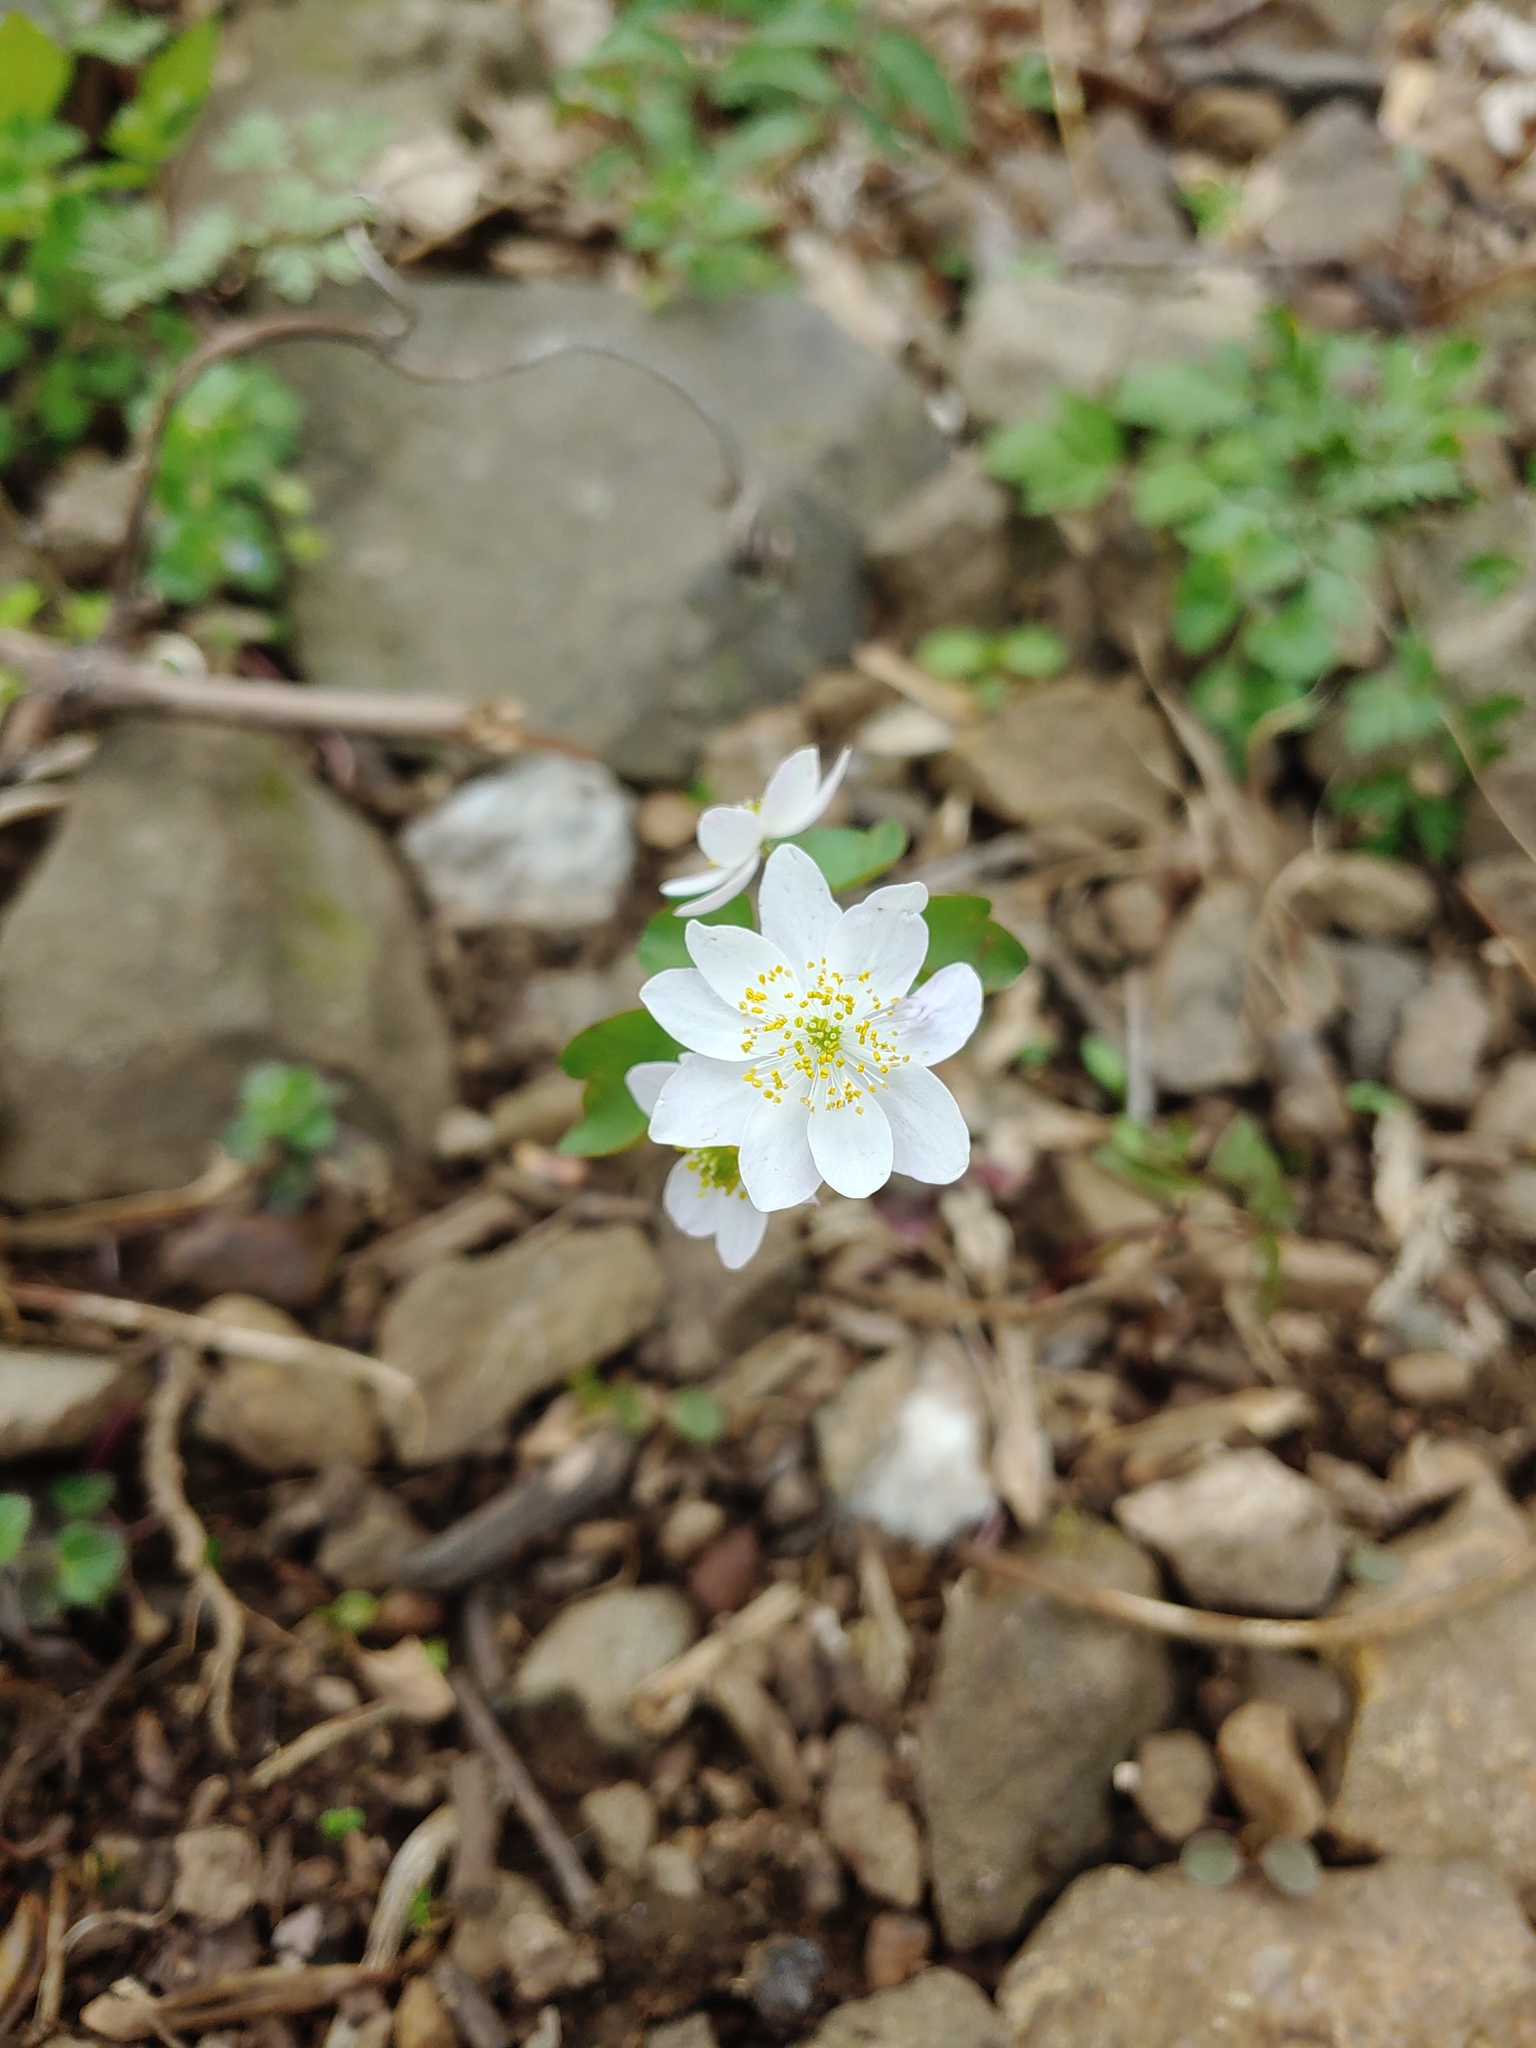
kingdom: Plantae
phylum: Tracheophyta
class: Magnoliopsida
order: Ranunculales
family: Ranunculaceae
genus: Thalictrum
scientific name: Thalictrum thalictroides
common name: Rue-anemone
